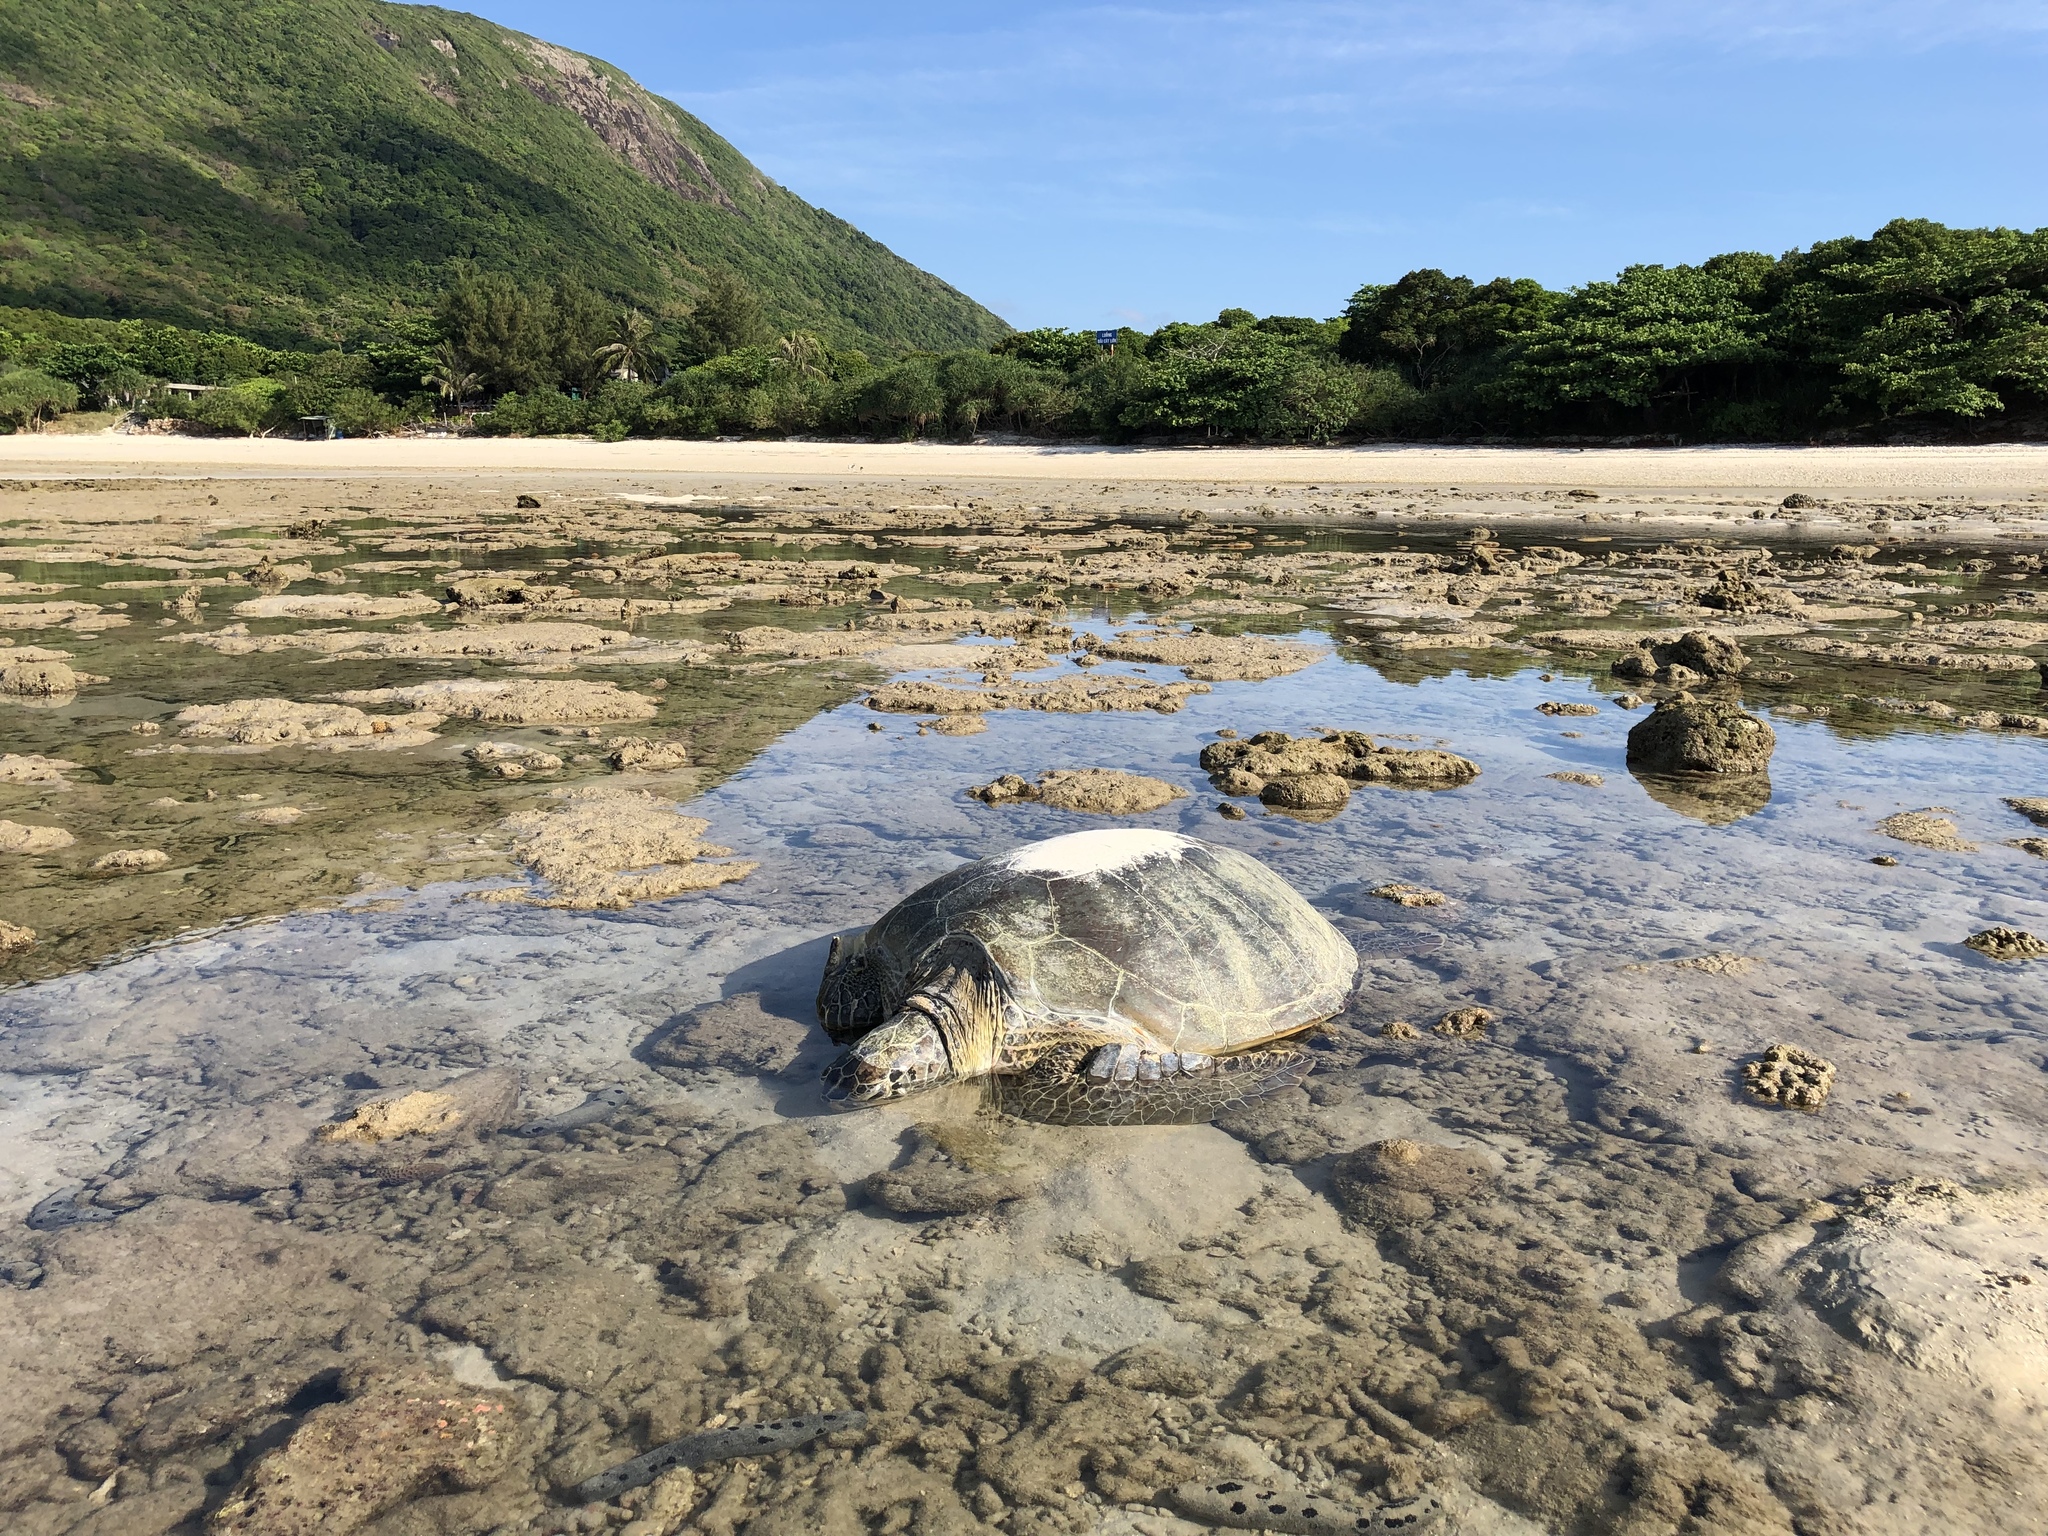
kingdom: Animalia
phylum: Chordata
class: Testudines
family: Cheloniidae
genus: Chelonia
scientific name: Chelonia mydas
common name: Green turtle
